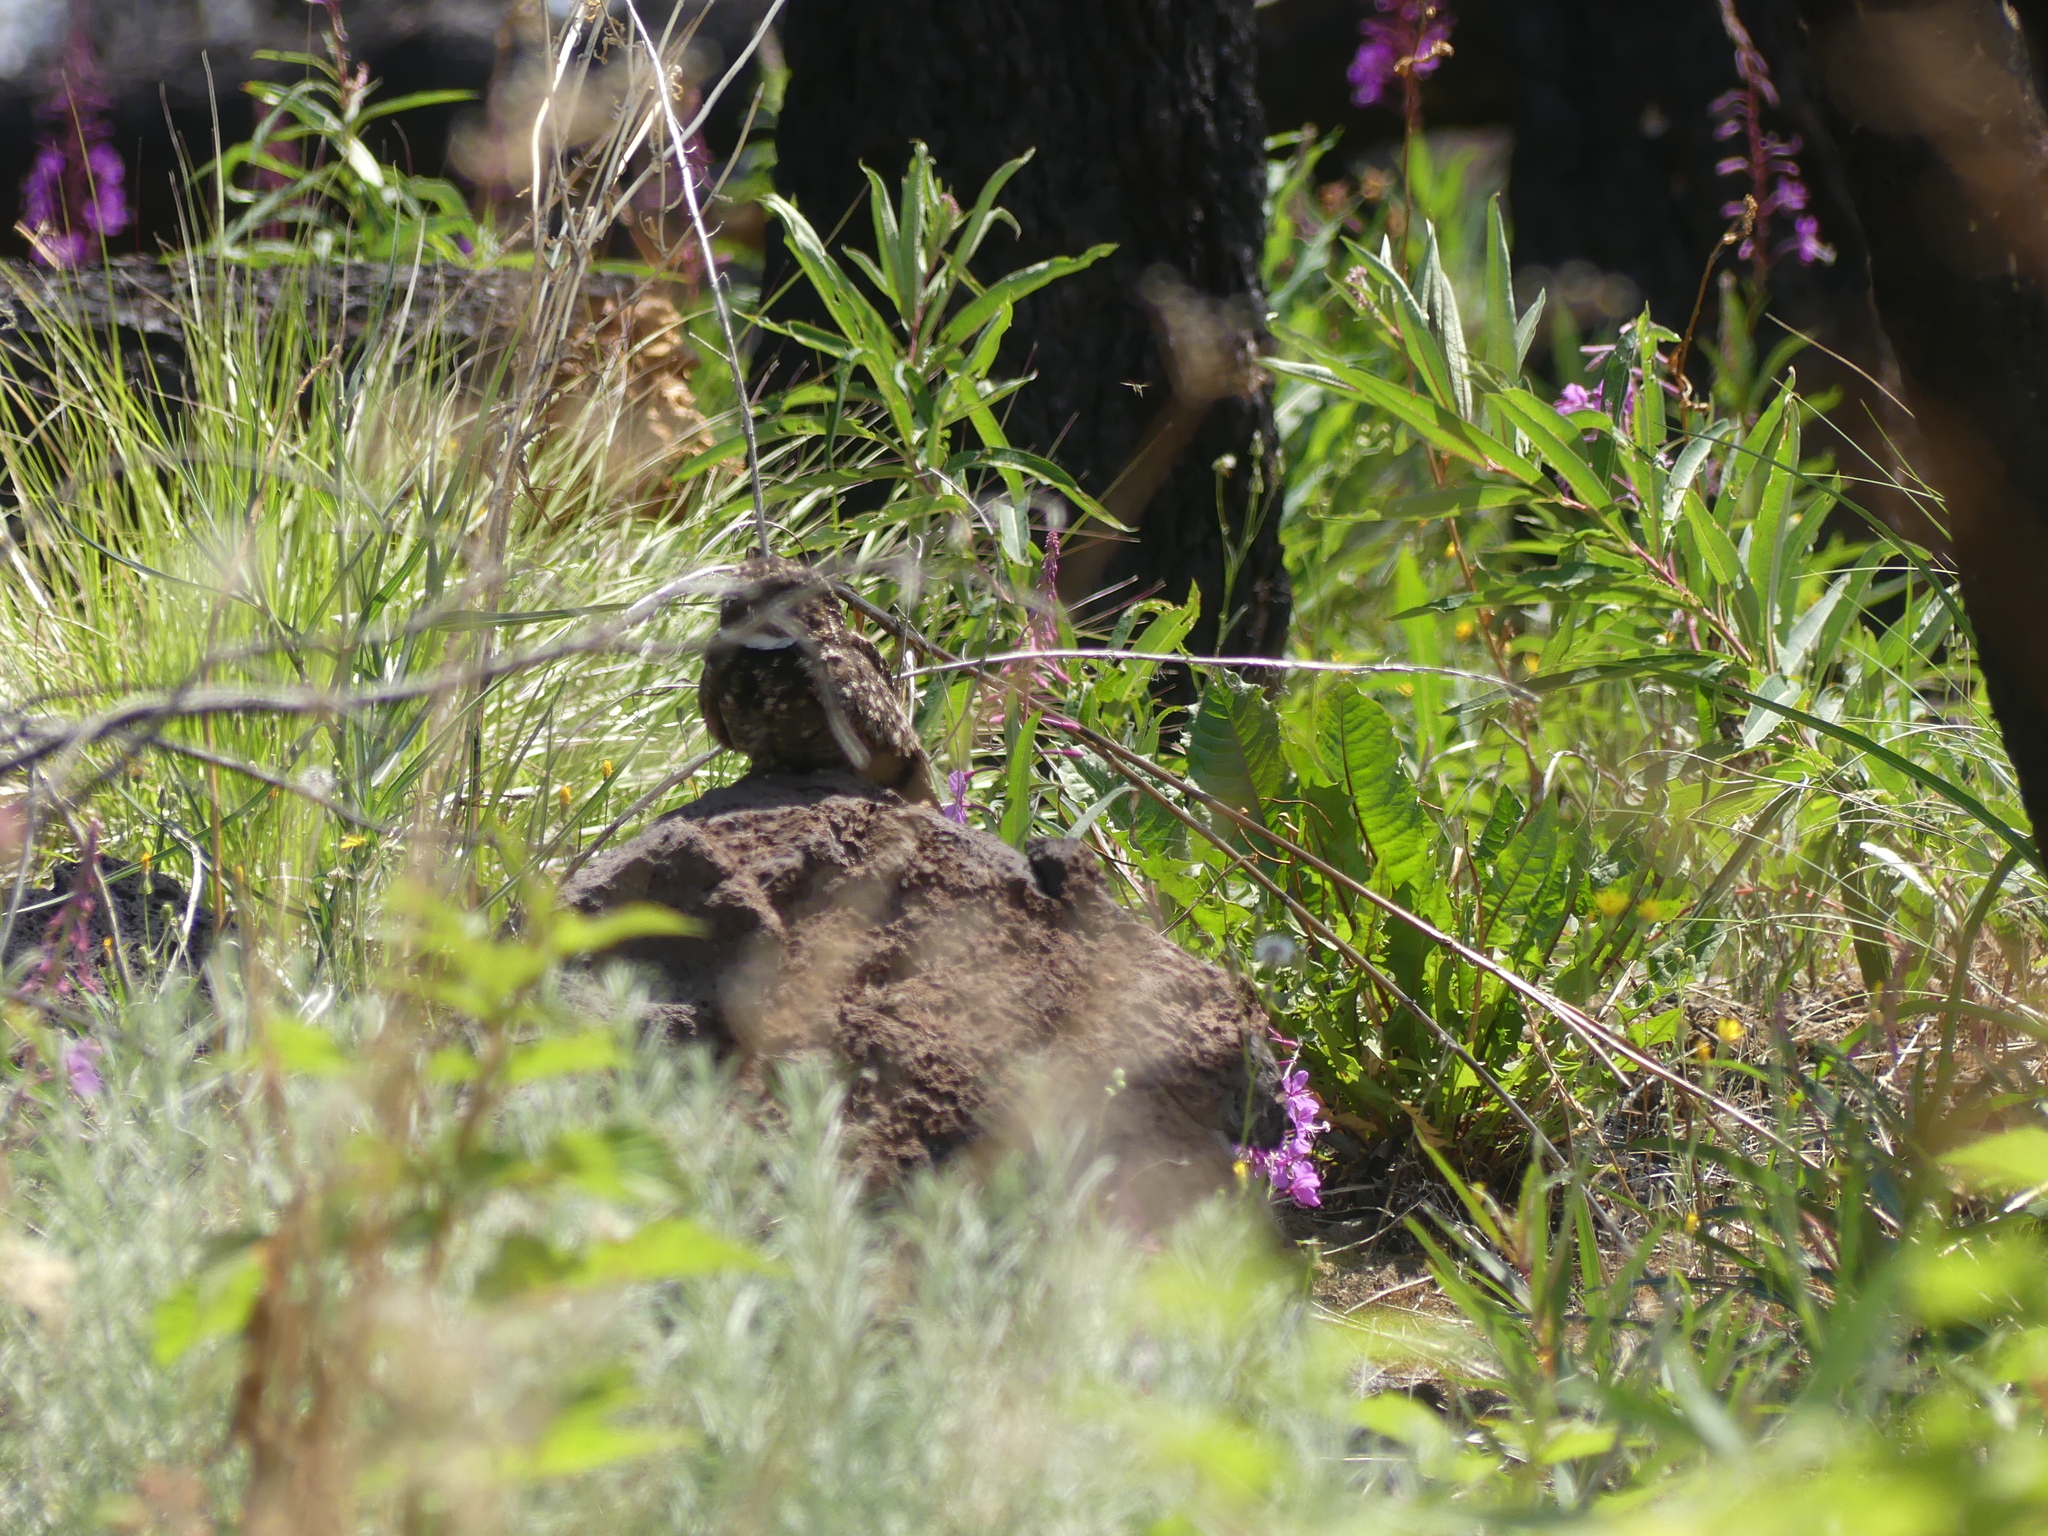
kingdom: Animalia
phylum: Chordata
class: Aves
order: Caprimulgiformes
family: Caprimulgidae
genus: Phalaenoptilus
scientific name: Phalaenoptilus nuttallii
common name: Common poorwill
